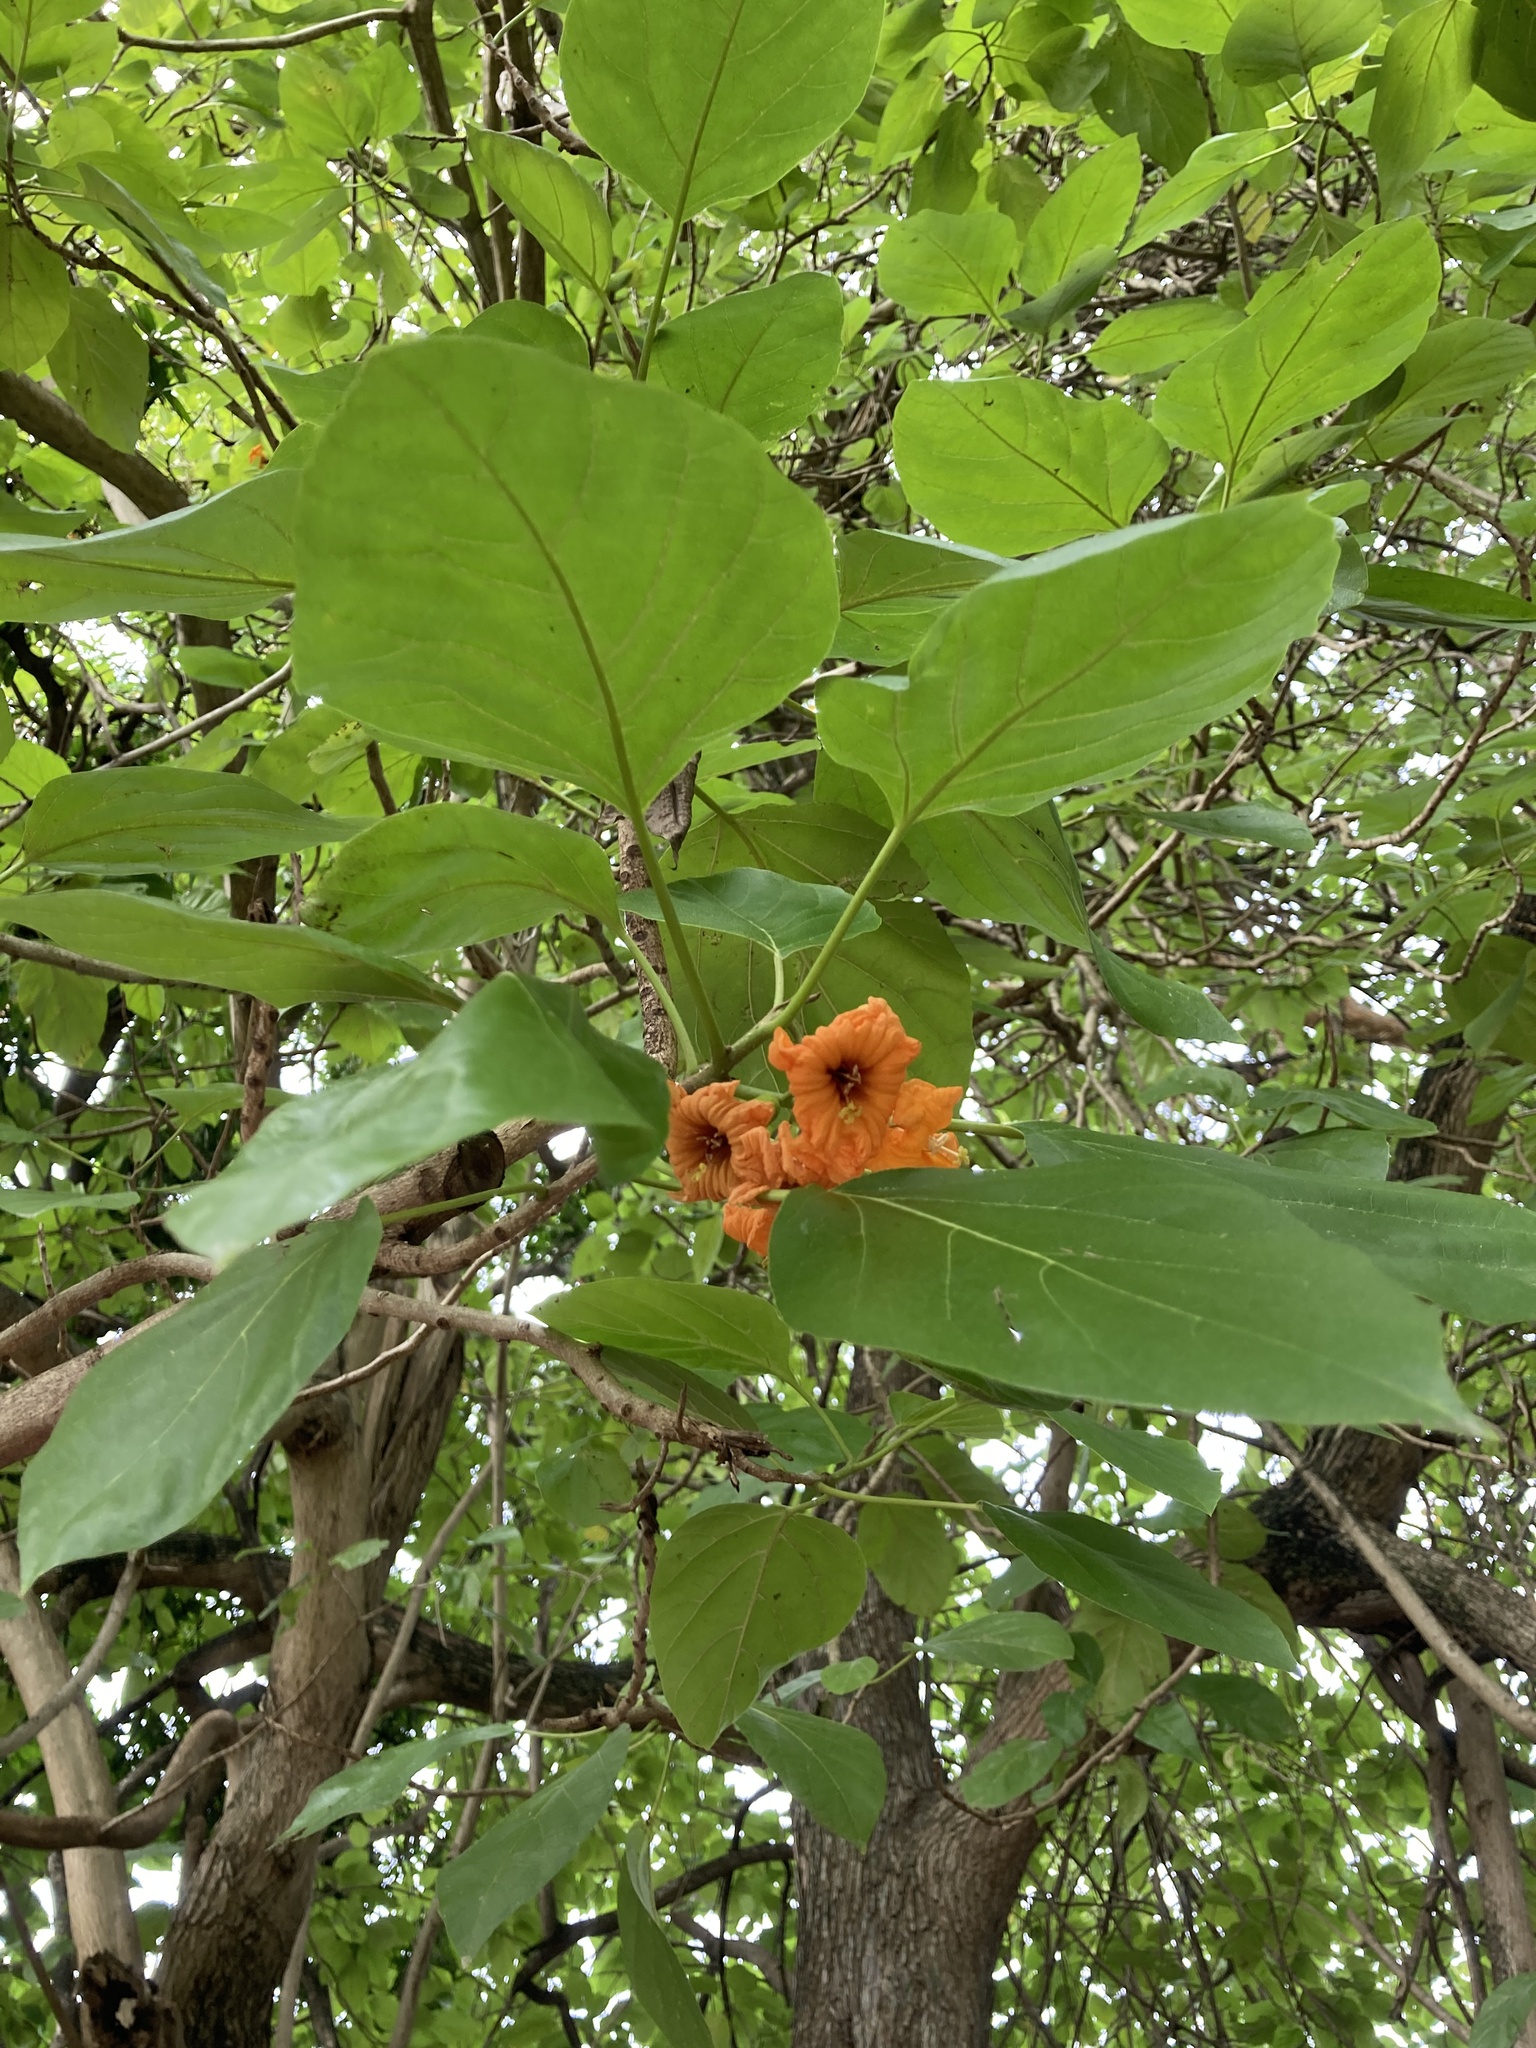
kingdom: Plantae
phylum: Tracheophyta
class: Magnoliopsida
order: Boraginales
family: Cordiaceae
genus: Cordia
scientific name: Cordia subcordata
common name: Mareer
